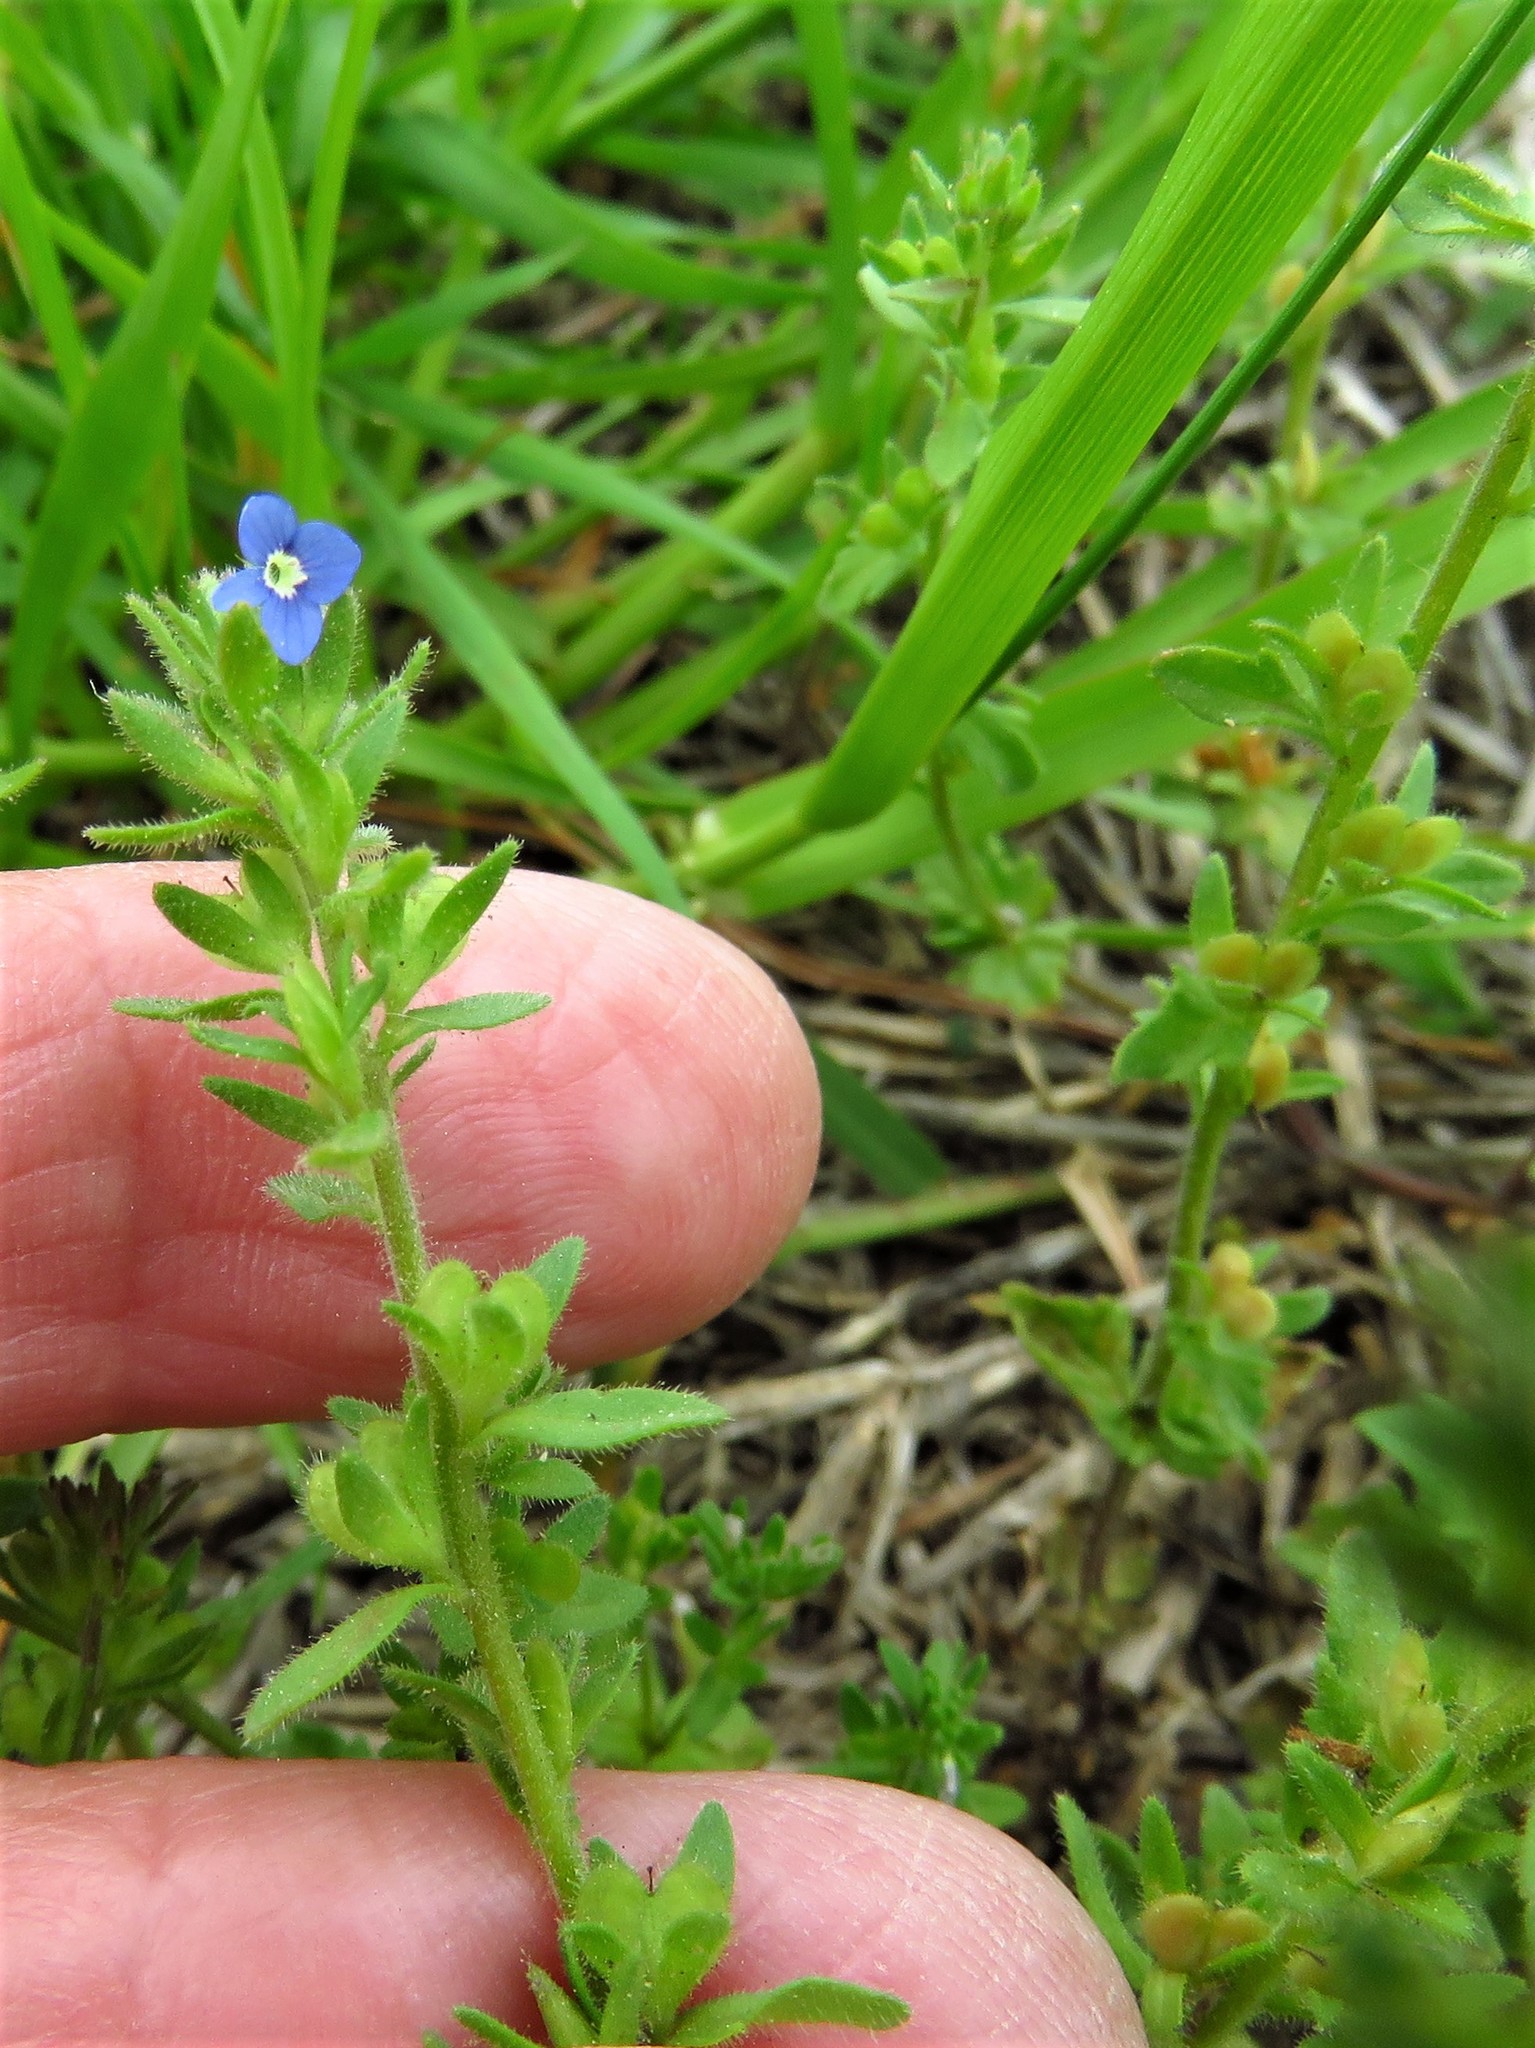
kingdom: Plantae
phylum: Tracheophyta
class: Magnoliopsida
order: Lamiales
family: Plantaginaceae
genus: Veronica
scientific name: Veronica arvensis
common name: Corn speedwell
